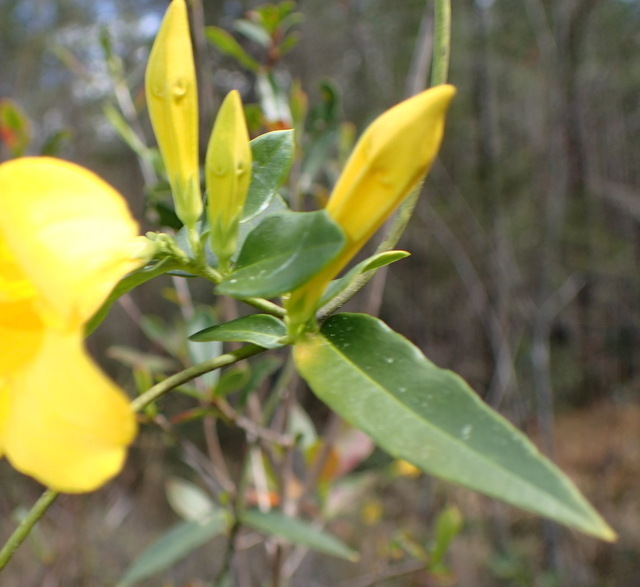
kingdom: Plantae
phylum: Tracheophyta
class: Magnoliopsida
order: Gentianales
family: Gelsemiaceae
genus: Gelsemium
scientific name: Gelsemium sempervirens
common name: Carolina-jasmine
